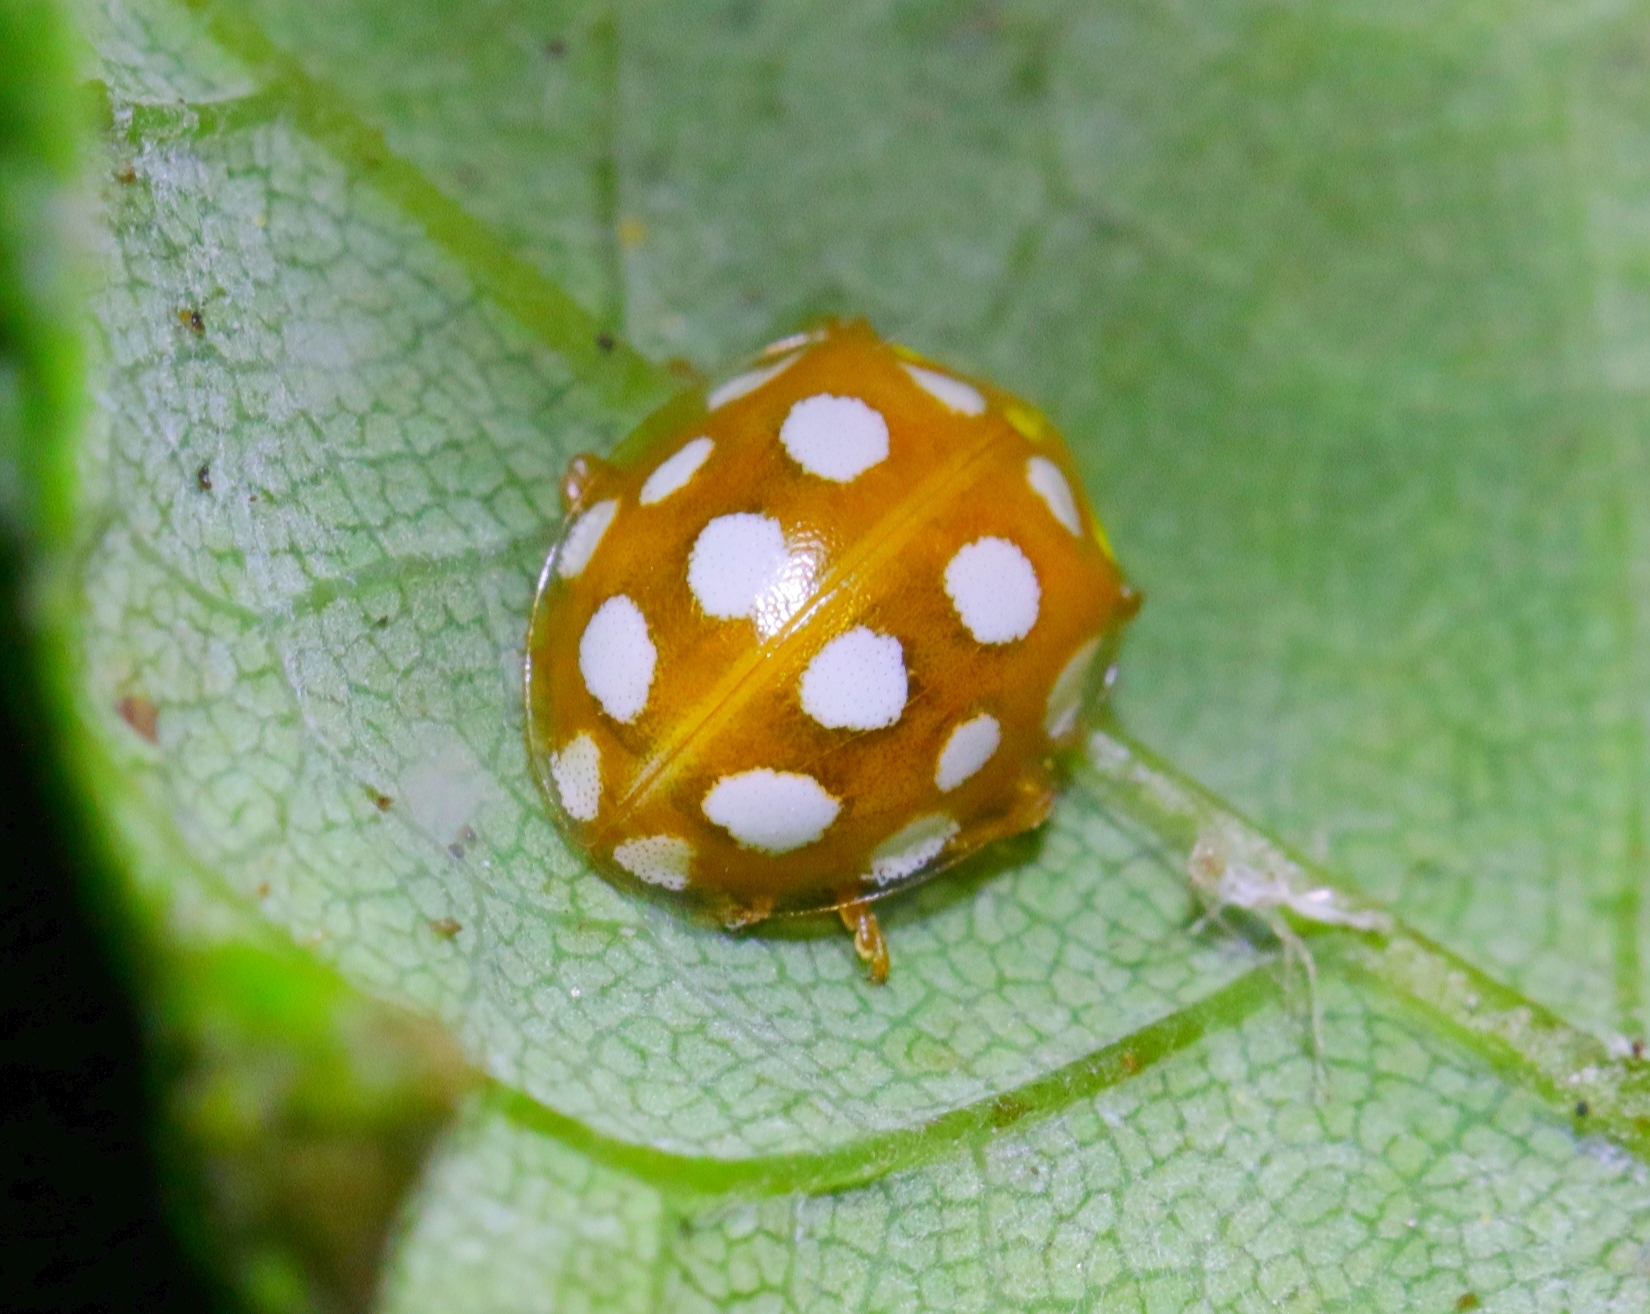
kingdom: Animalia
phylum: Arthropoda
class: Insecta
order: Coleoptera
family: Coccinellidae
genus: Halyzia
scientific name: Halyzia sedecimguttata
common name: Orange ladybird
